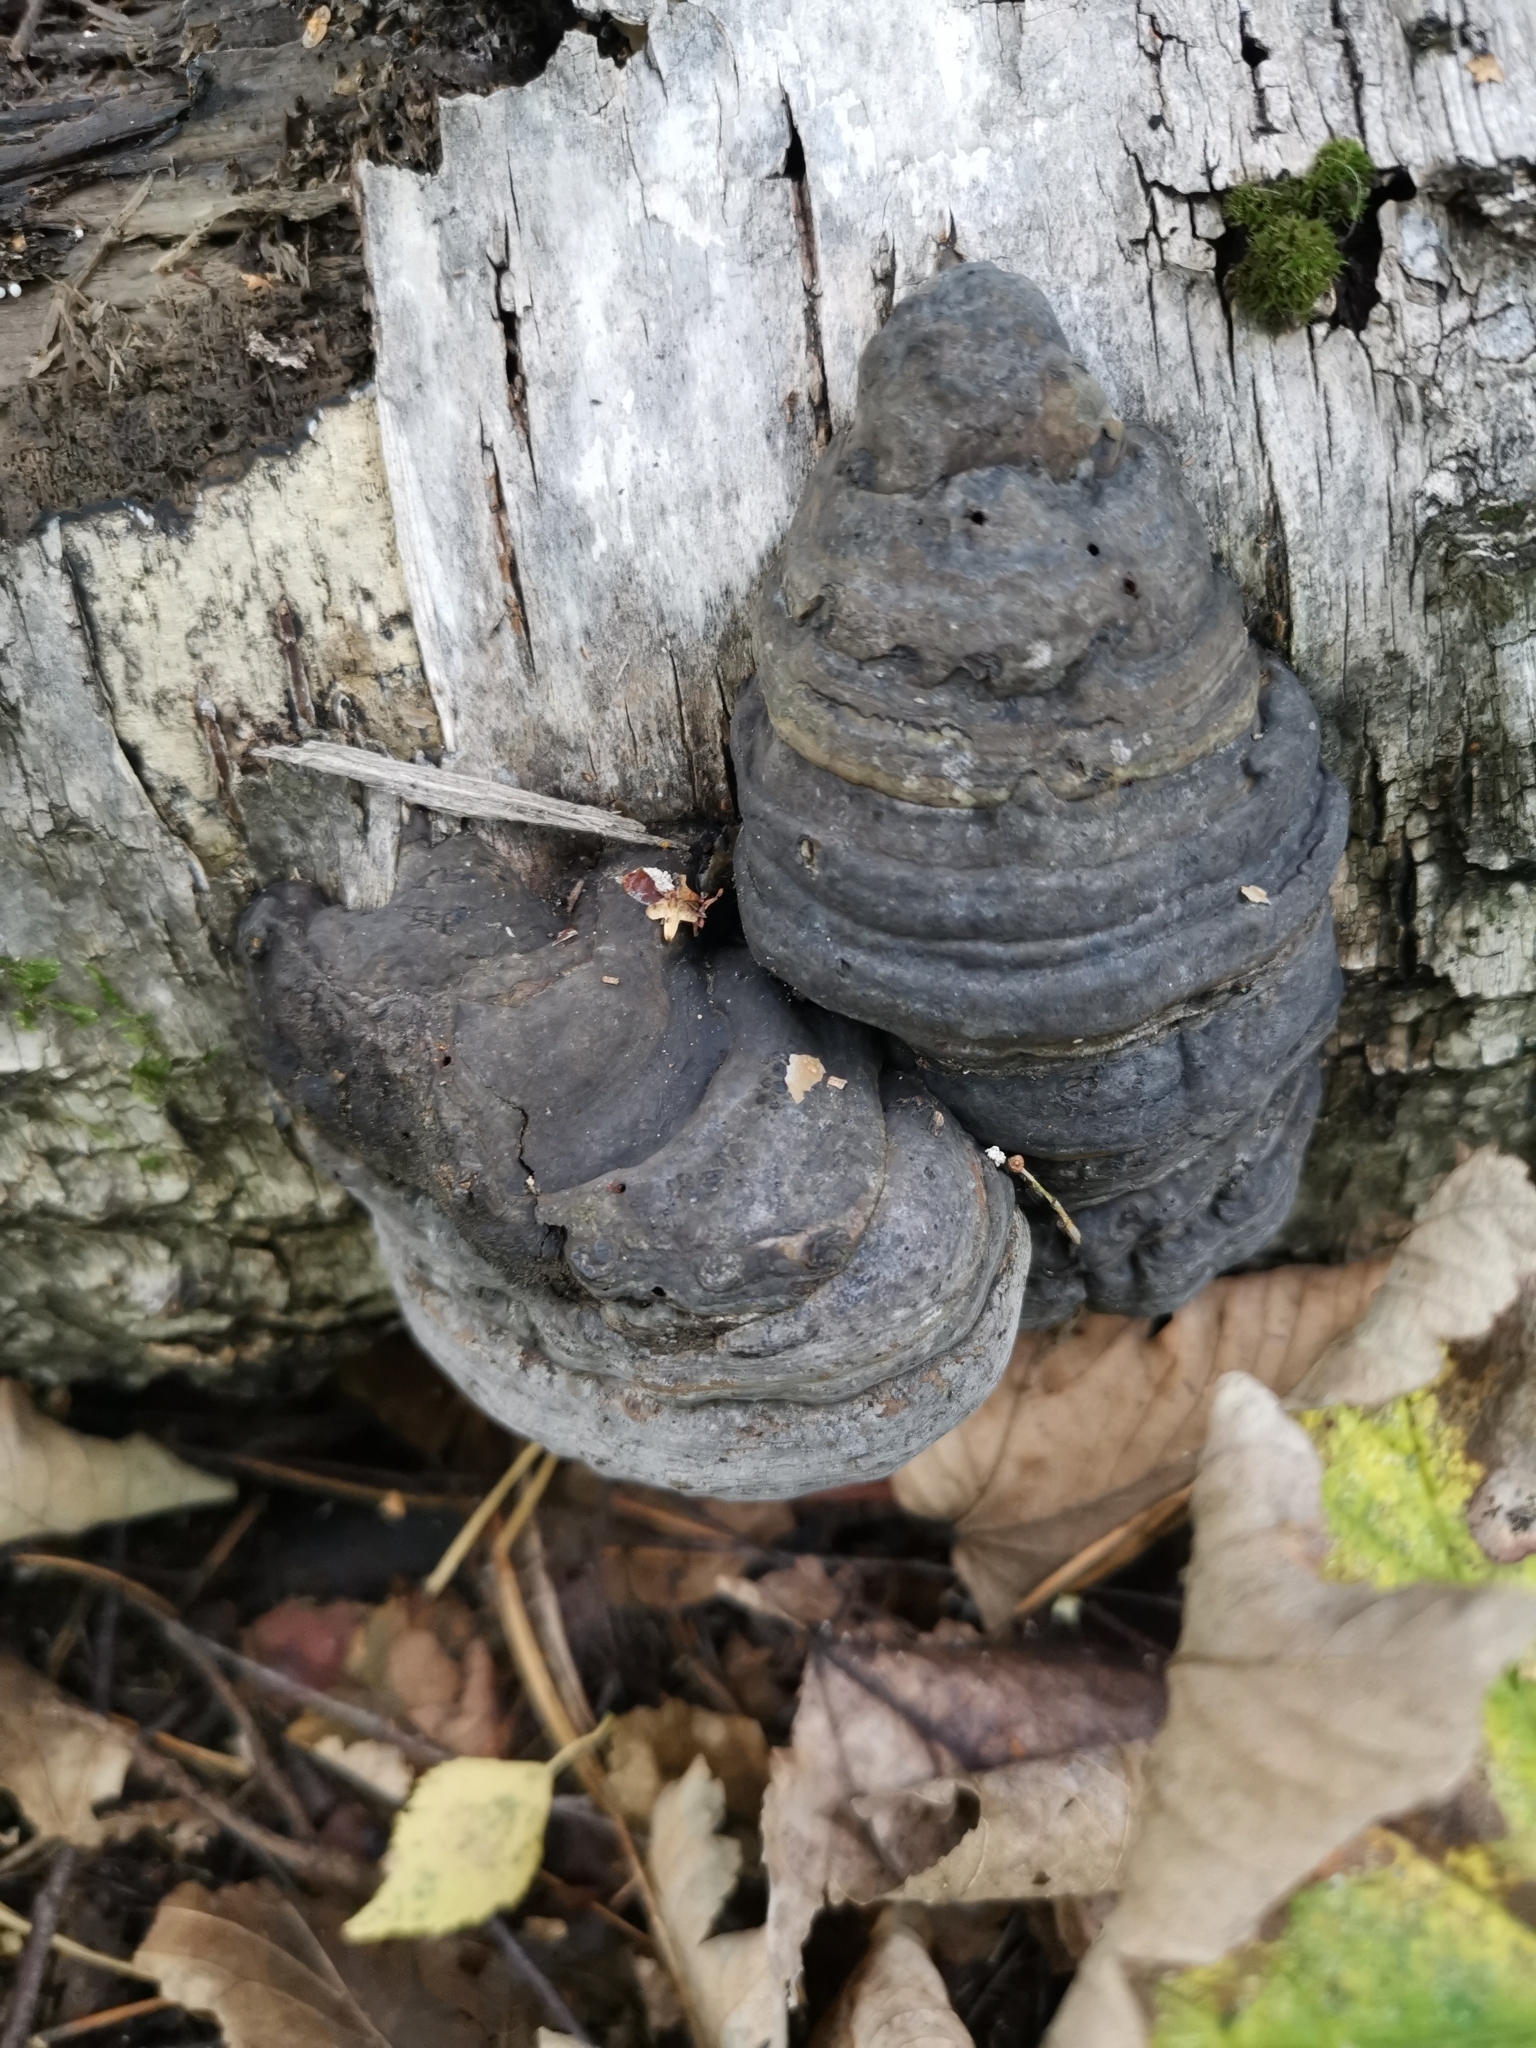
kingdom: Fungi
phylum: Basidiomycota
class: Agaricomycetes
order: Polyporales
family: Polyporaceae
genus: Fomes
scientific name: Fomes fomentarius
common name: Hoof fungus
